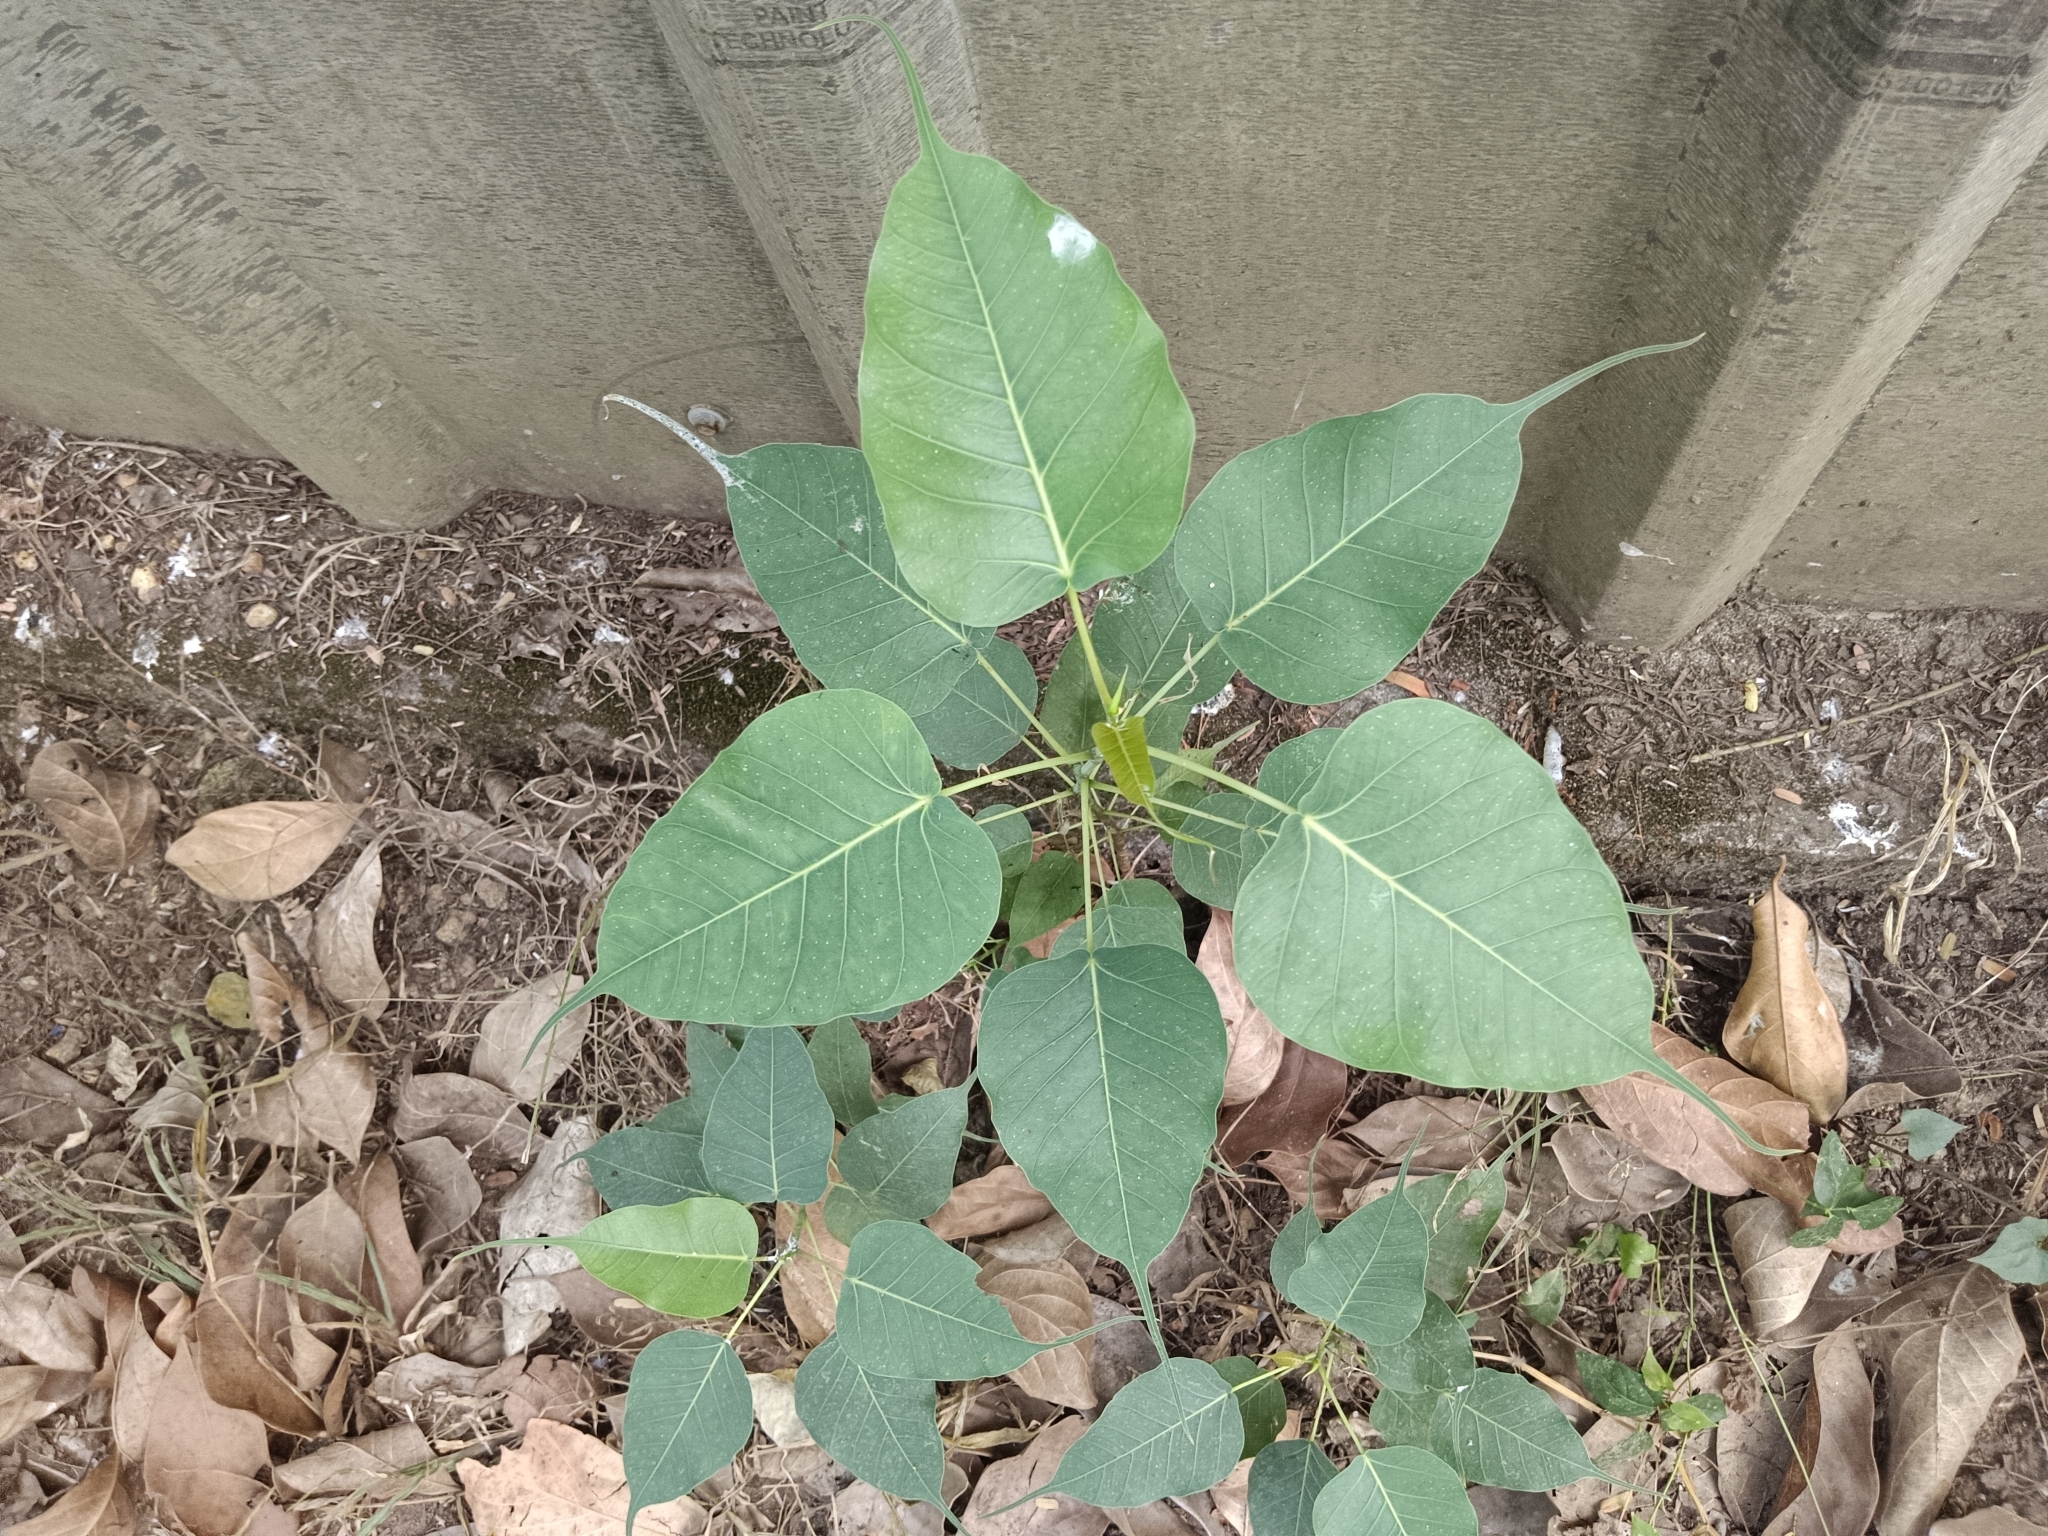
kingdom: Plantae
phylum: Tracheophyta
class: Magnoliopsida
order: Rosales
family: Moraceae
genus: Ficus
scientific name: Ficus religiosa
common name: Bodhi tree
